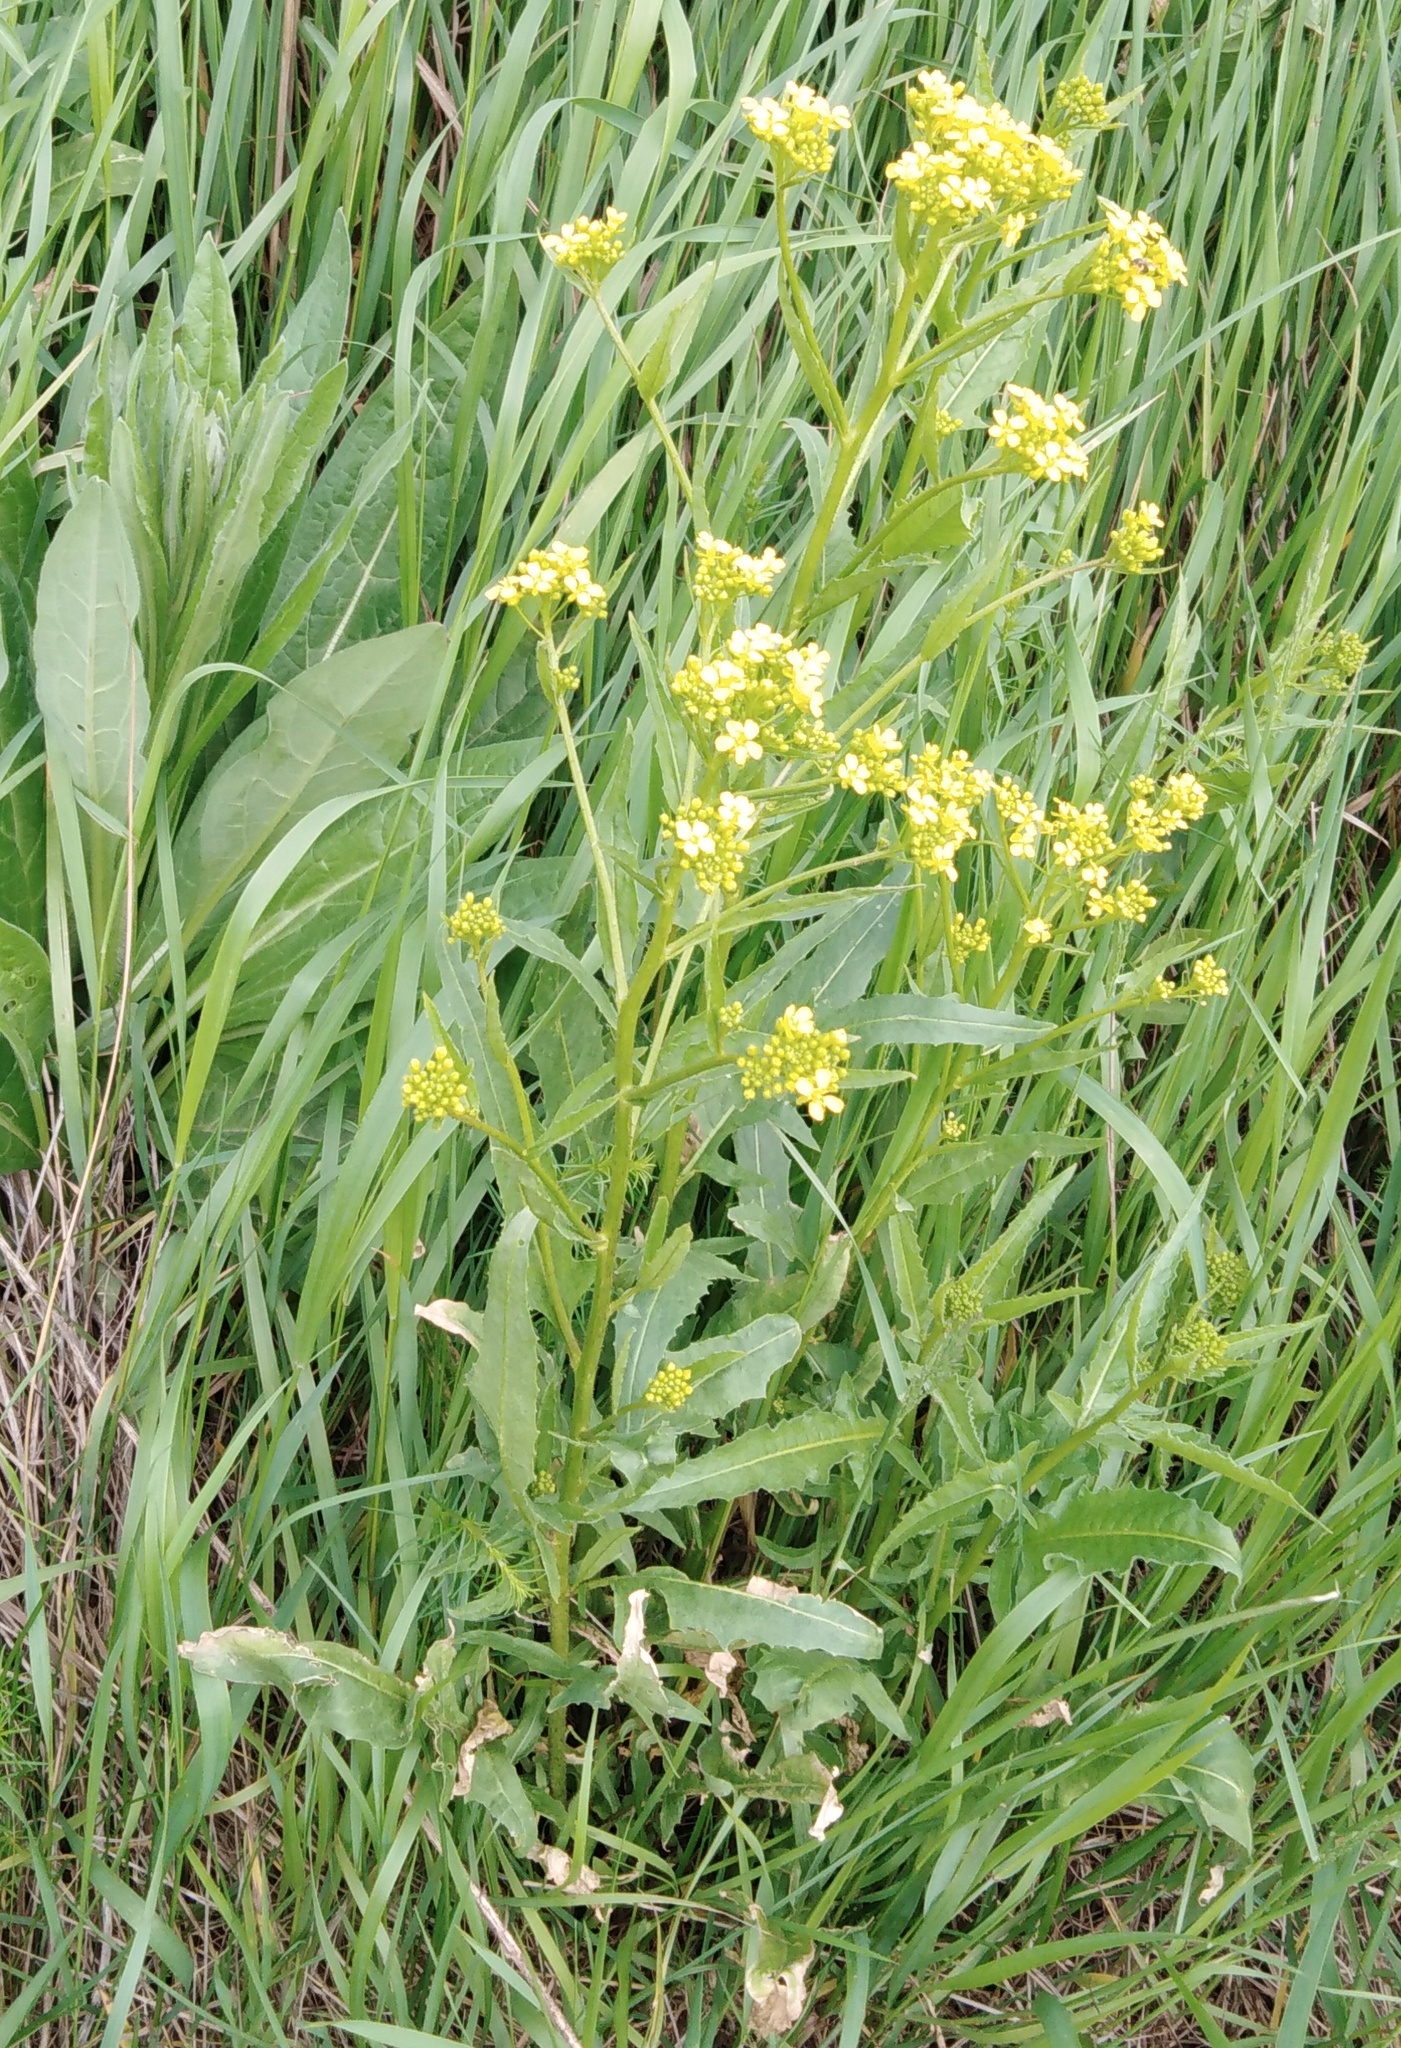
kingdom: Plantae
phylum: Tracheophyta
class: Magnoliopsida
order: Brassicales
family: Brassicaceae
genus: Bunias
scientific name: Bunias orientalis
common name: Warty-cabbage
